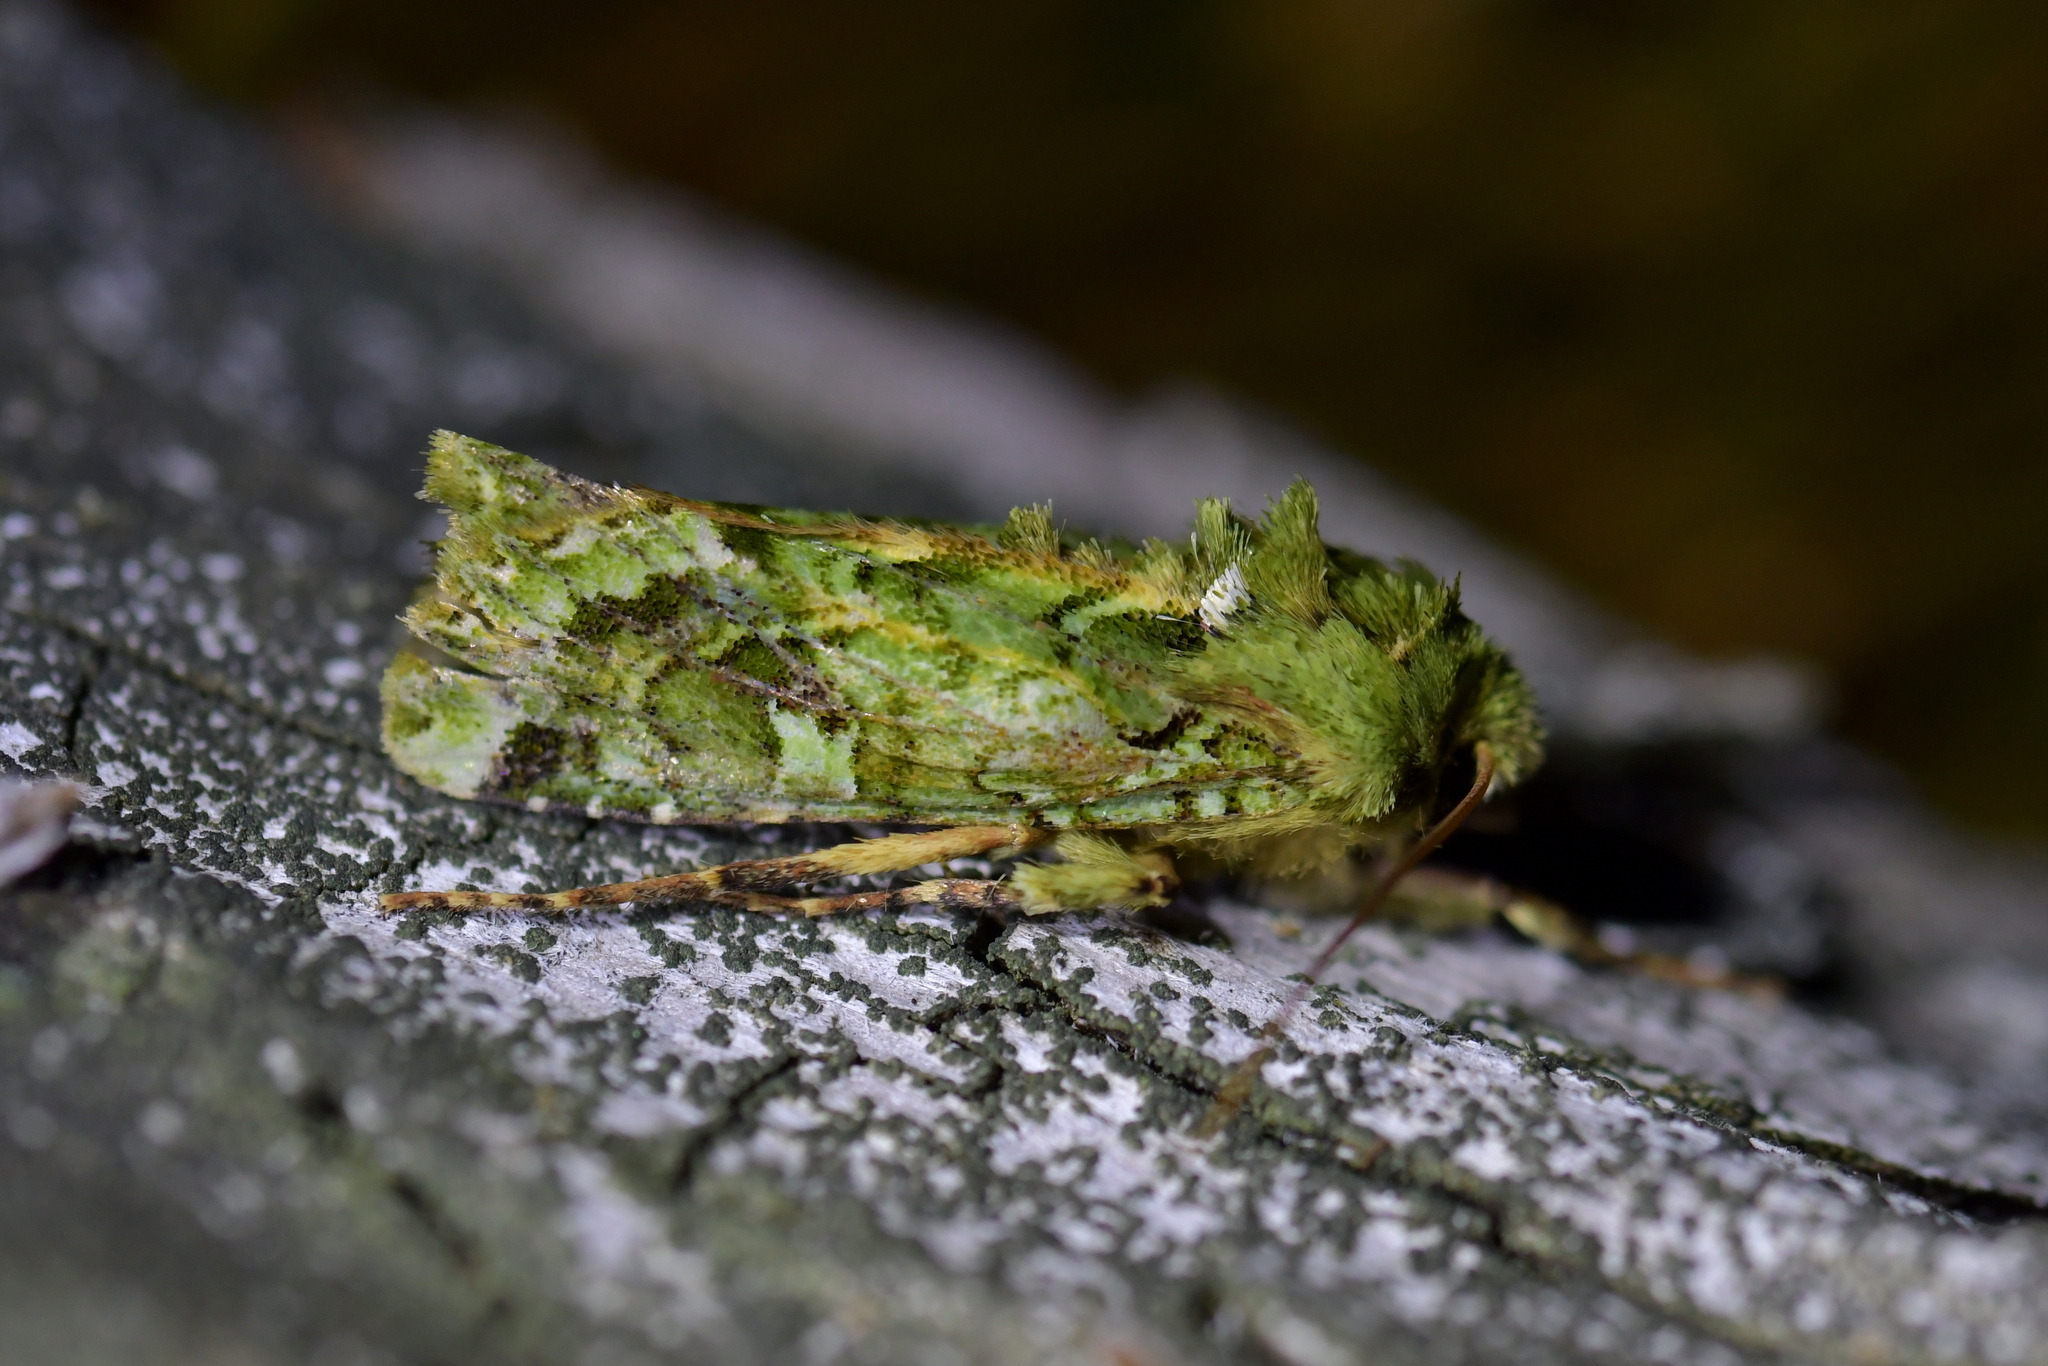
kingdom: Animalia
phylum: Arthropoda
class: Insecta
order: Lepidoptera
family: Noctuidae
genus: Feredayia
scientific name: Feredayia grammosa
